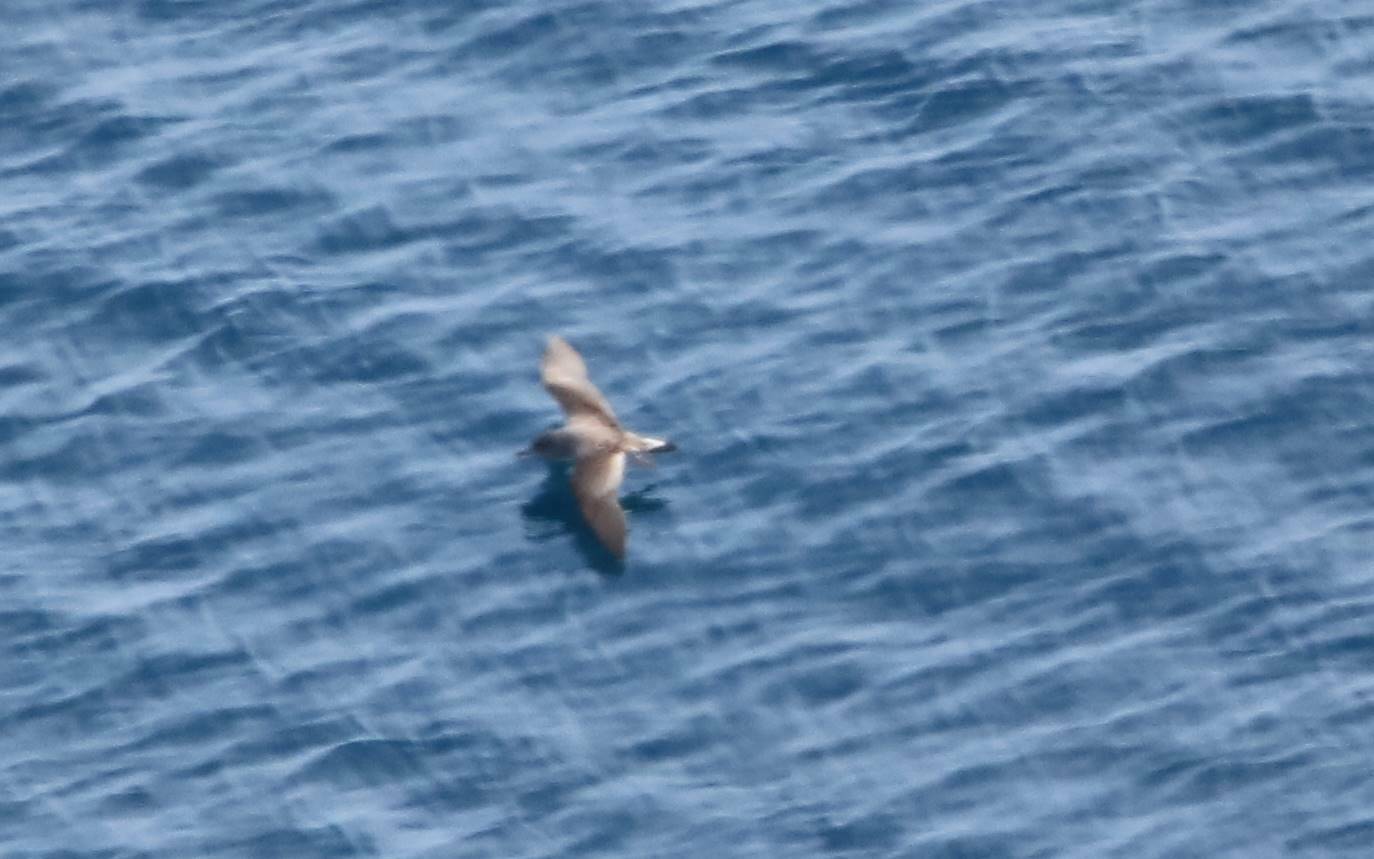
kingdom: Animalia
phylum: Chordata
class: Aves
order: Procellariiformes
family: Procellariidae
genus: Calonectris
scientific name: Calonectris diomedea
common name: Cory's shearwater
